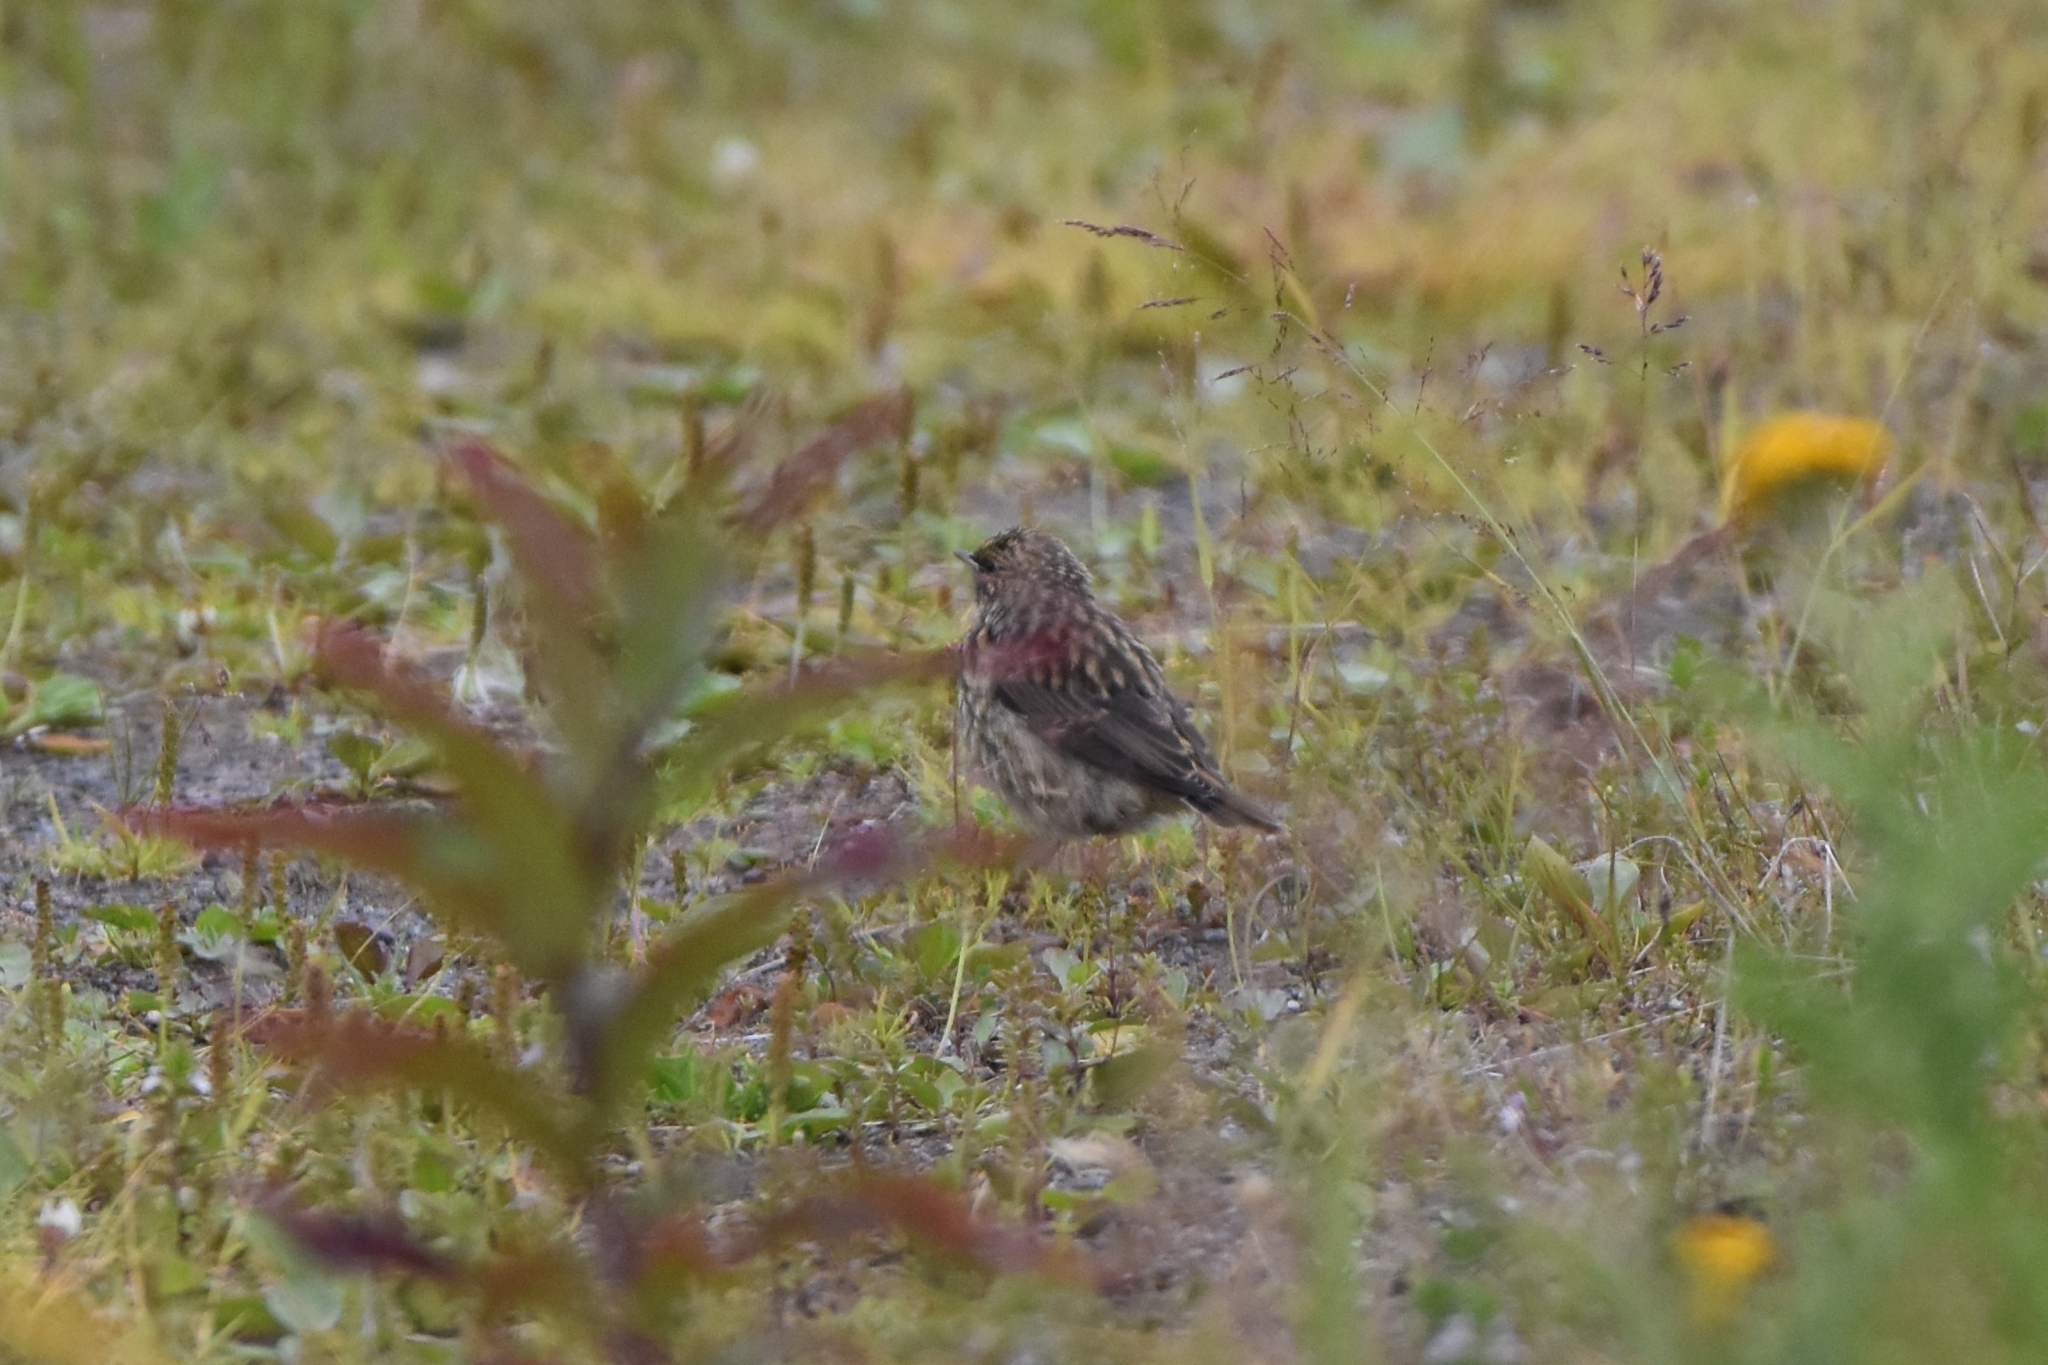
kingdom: Animalia
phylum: Chordata
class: Aves
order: Passeriformes
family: Muscicapidae
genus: Luscinia
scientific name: Luscinia svecica
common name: Bluethroat
